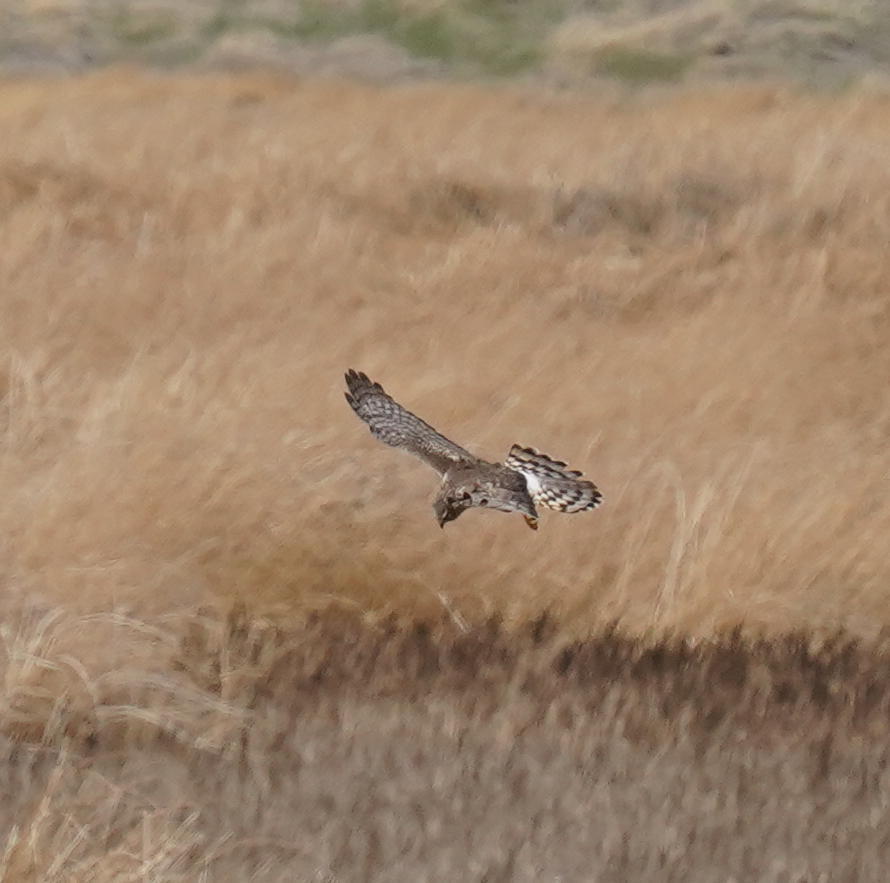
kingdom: Animalia
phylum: Chordata
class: Aves
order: Accipitriformes
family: Accipitridae
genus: Circus
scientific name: Circus cyaneus
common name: Hen harrier
